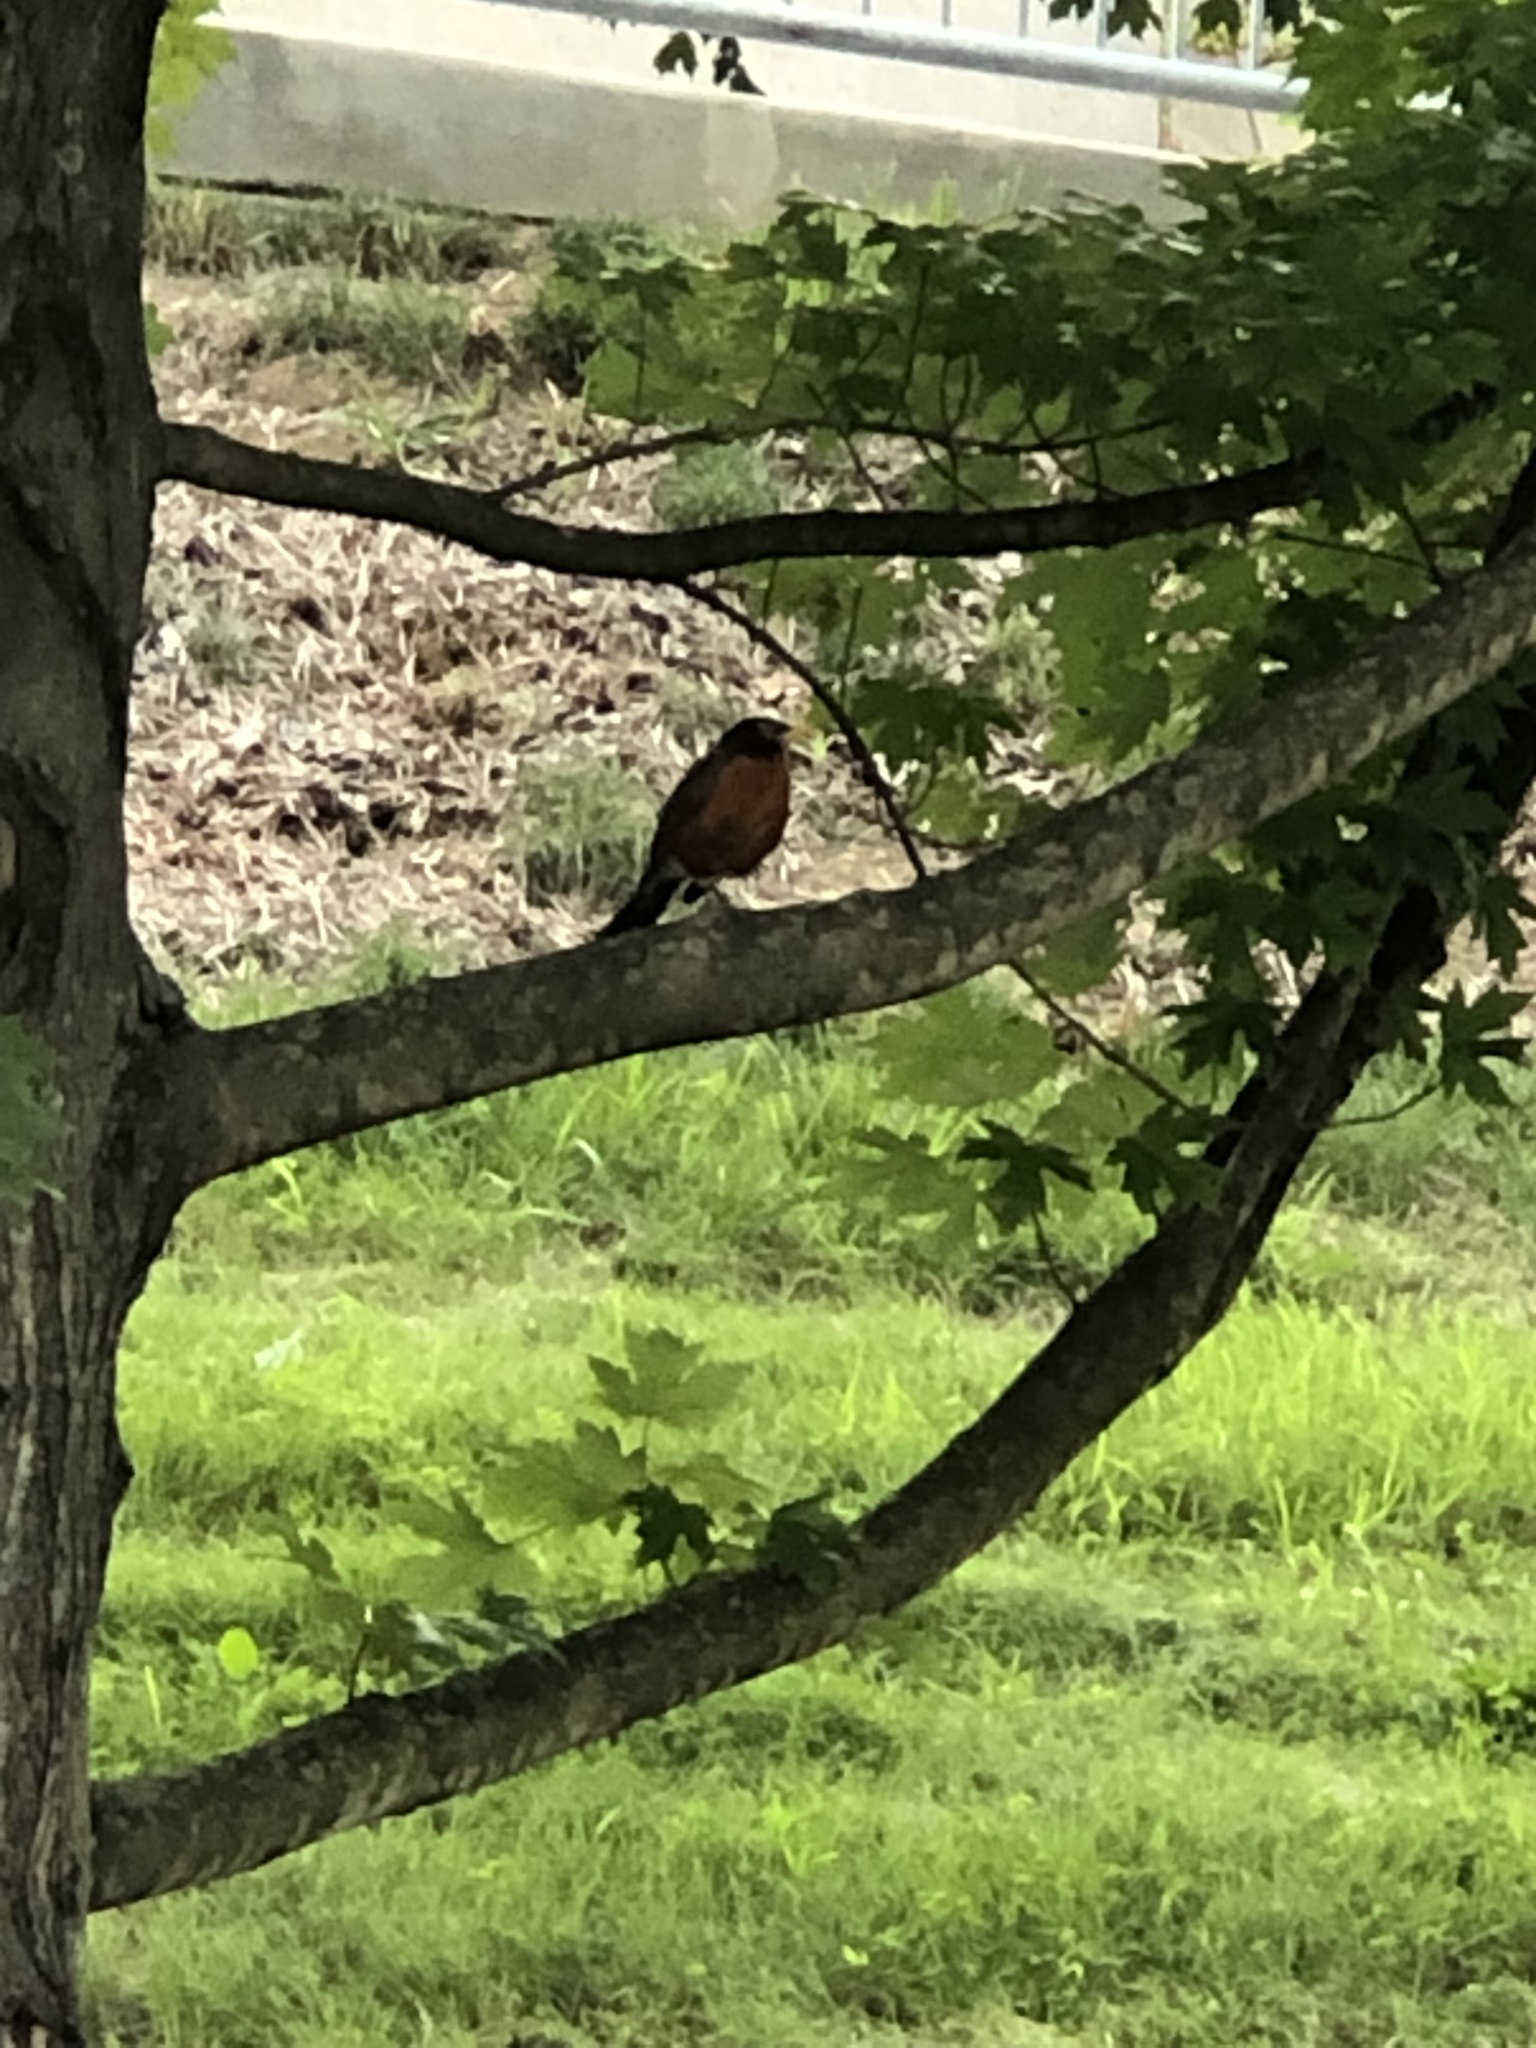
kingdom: Animalia
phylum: Chordata
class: Aves
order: Passeriformes
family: Turdidae
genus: Turdus
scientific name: Turdus migratorius
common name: American robin
